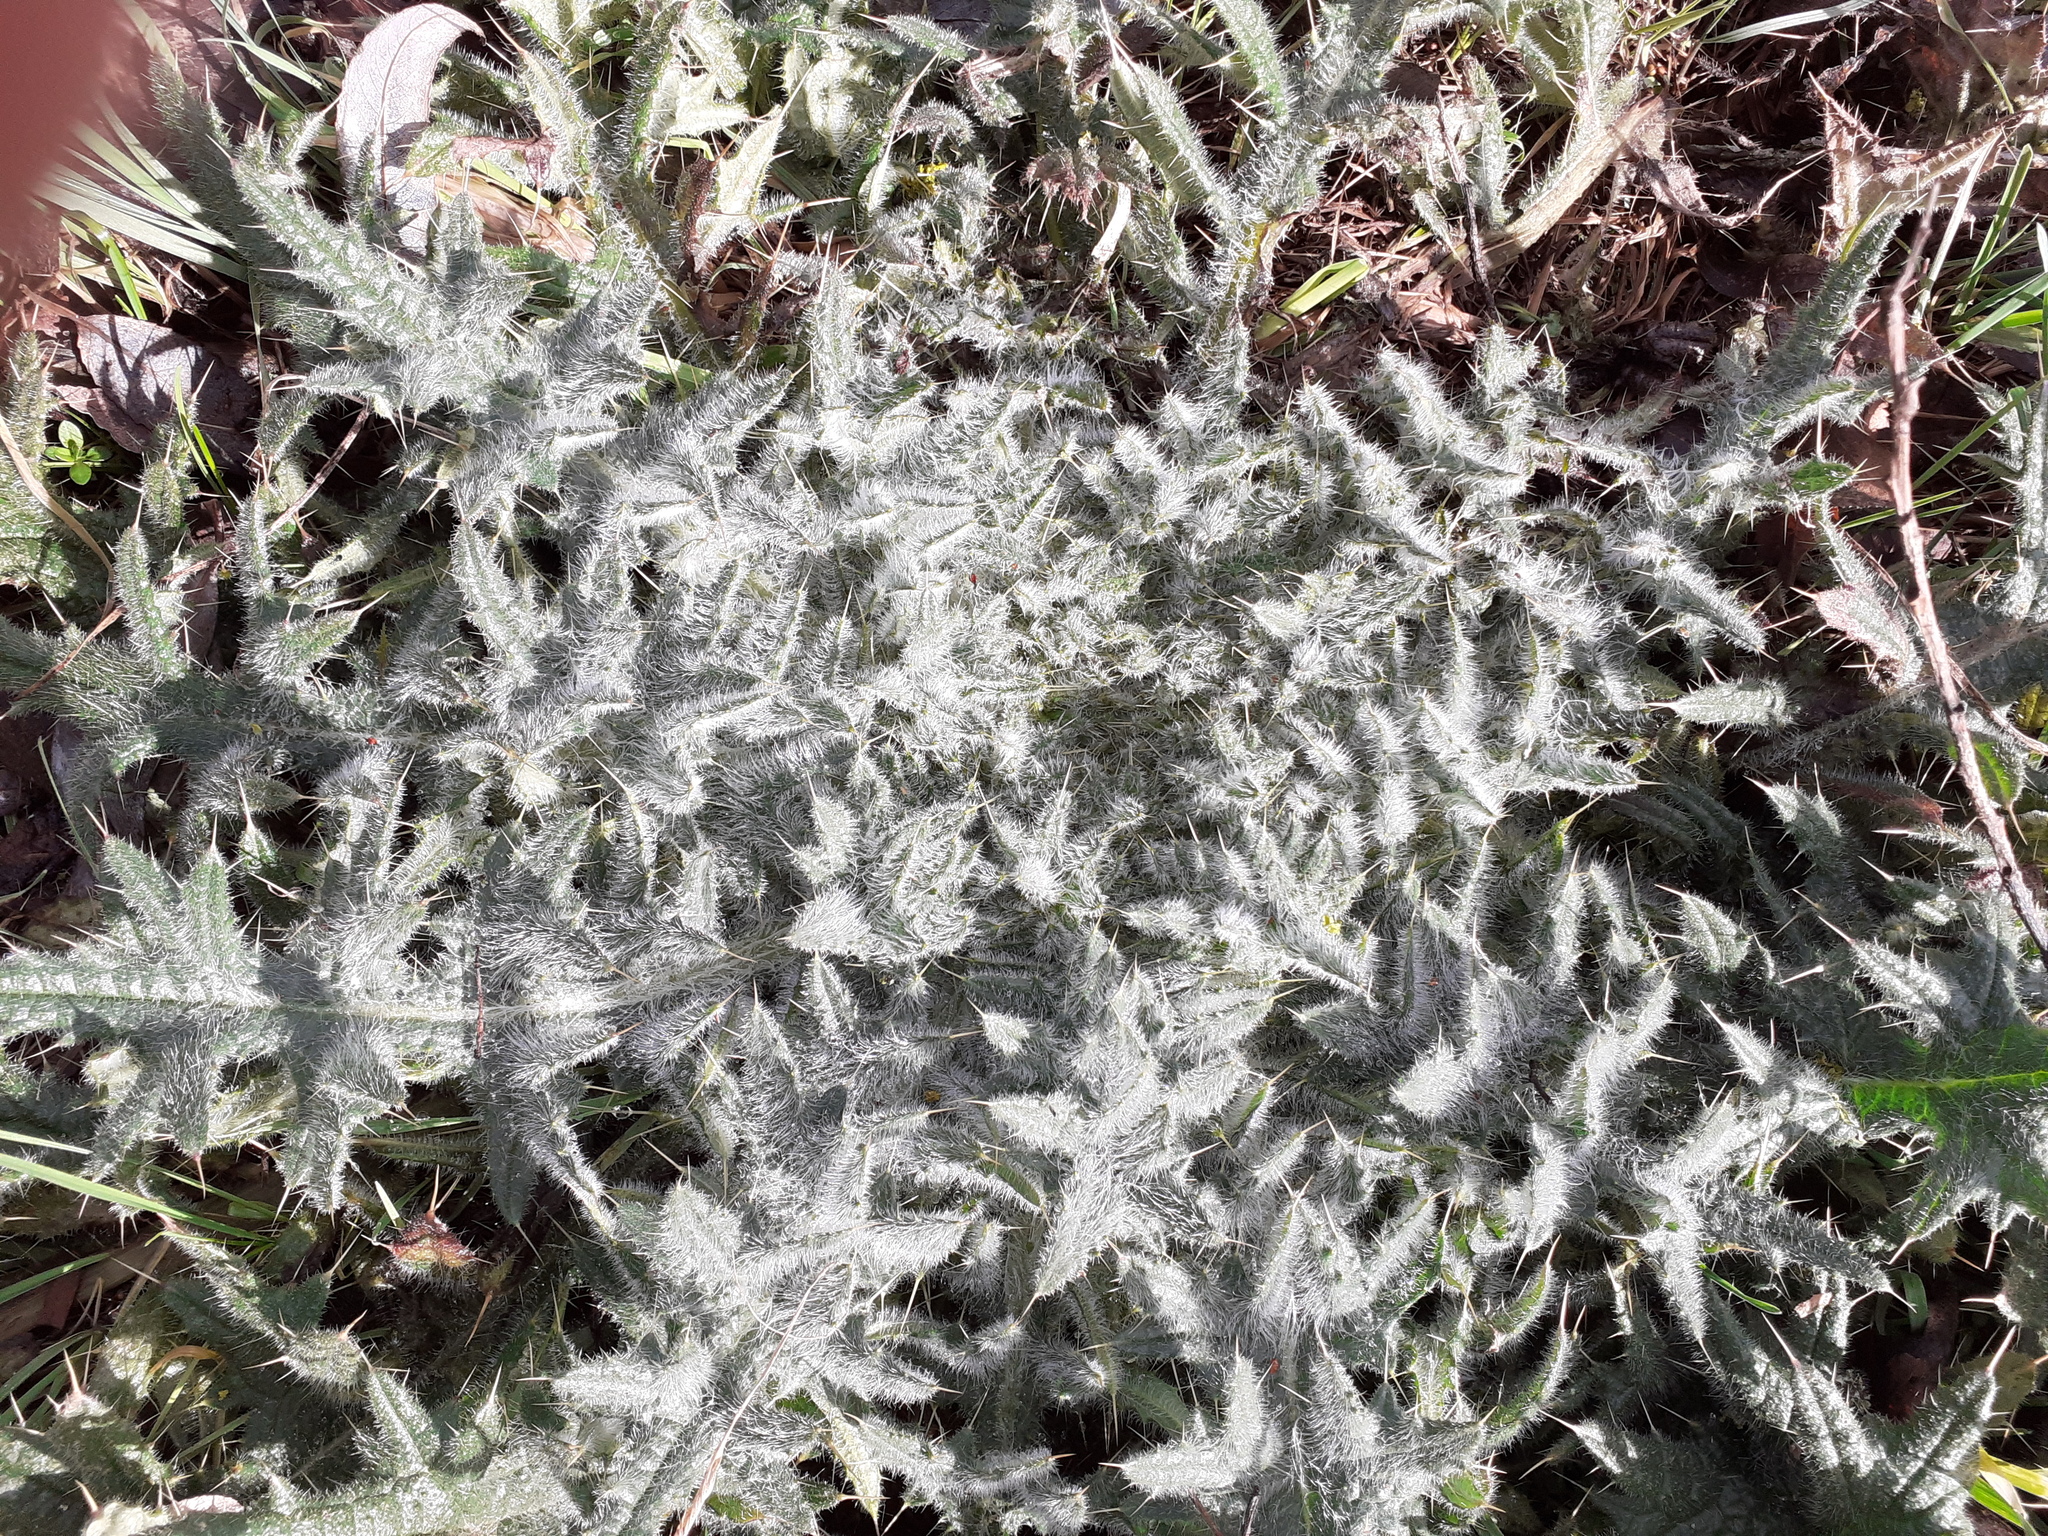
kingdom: Plantae
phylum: Tracheophyta
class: Magnoliopsida
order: Asterales
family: Asteraceae
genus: Cirsium
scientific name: Cirsium vulgare
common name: Bull thistle
